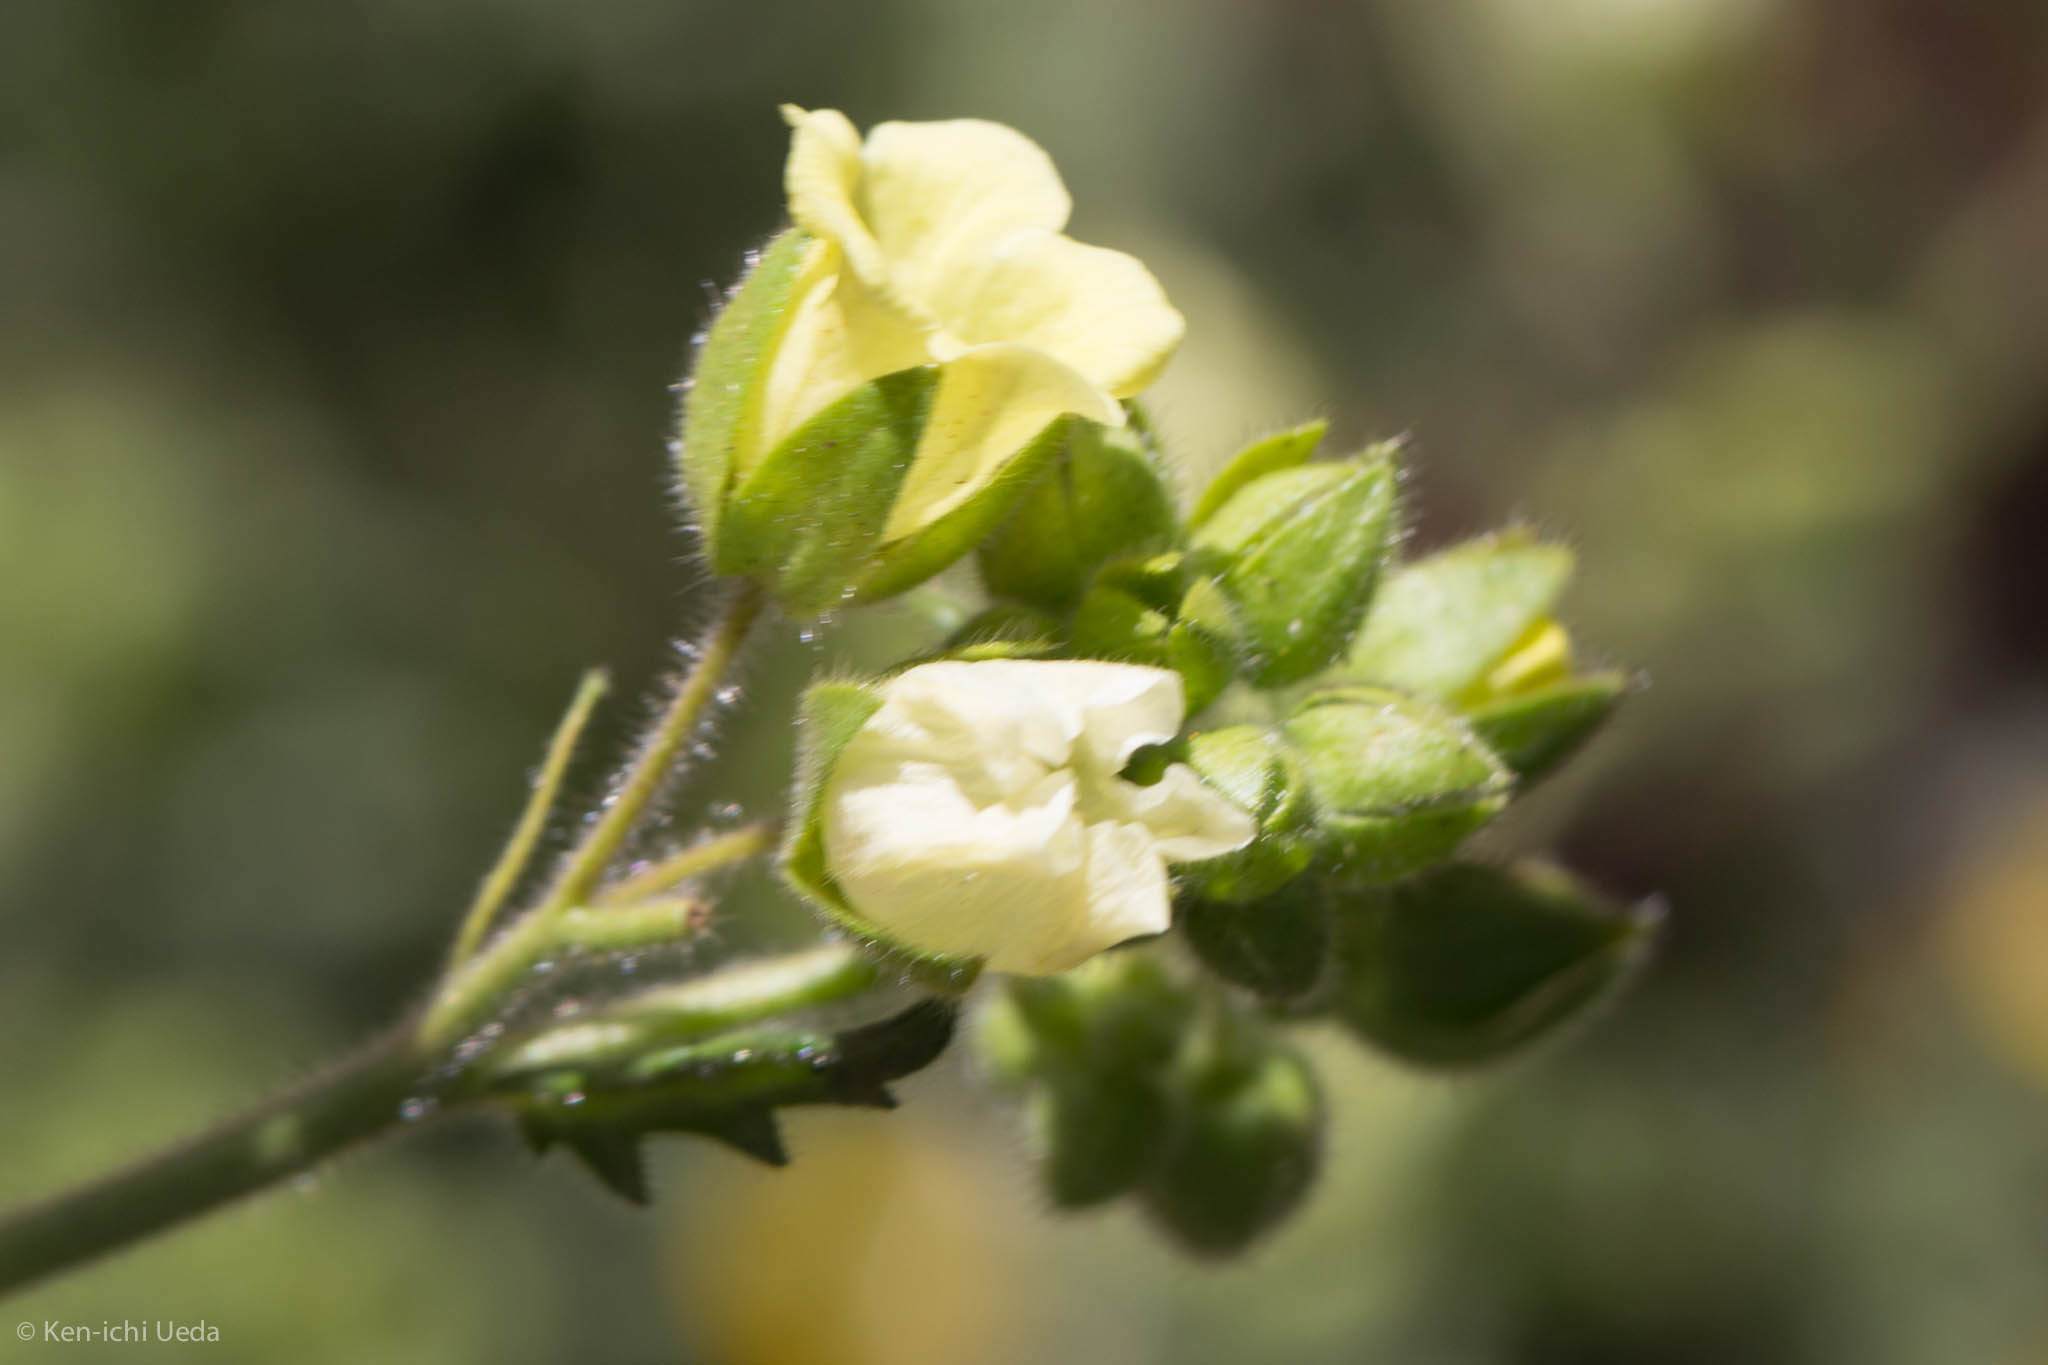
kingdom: Plantae
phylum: Tracheophyta
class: Magnoliopsida
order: Boraginales
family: Hydrophyllaceae
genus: Emmenanthe
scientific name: Emmenanthe penduliflora
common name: Whispering-bells
